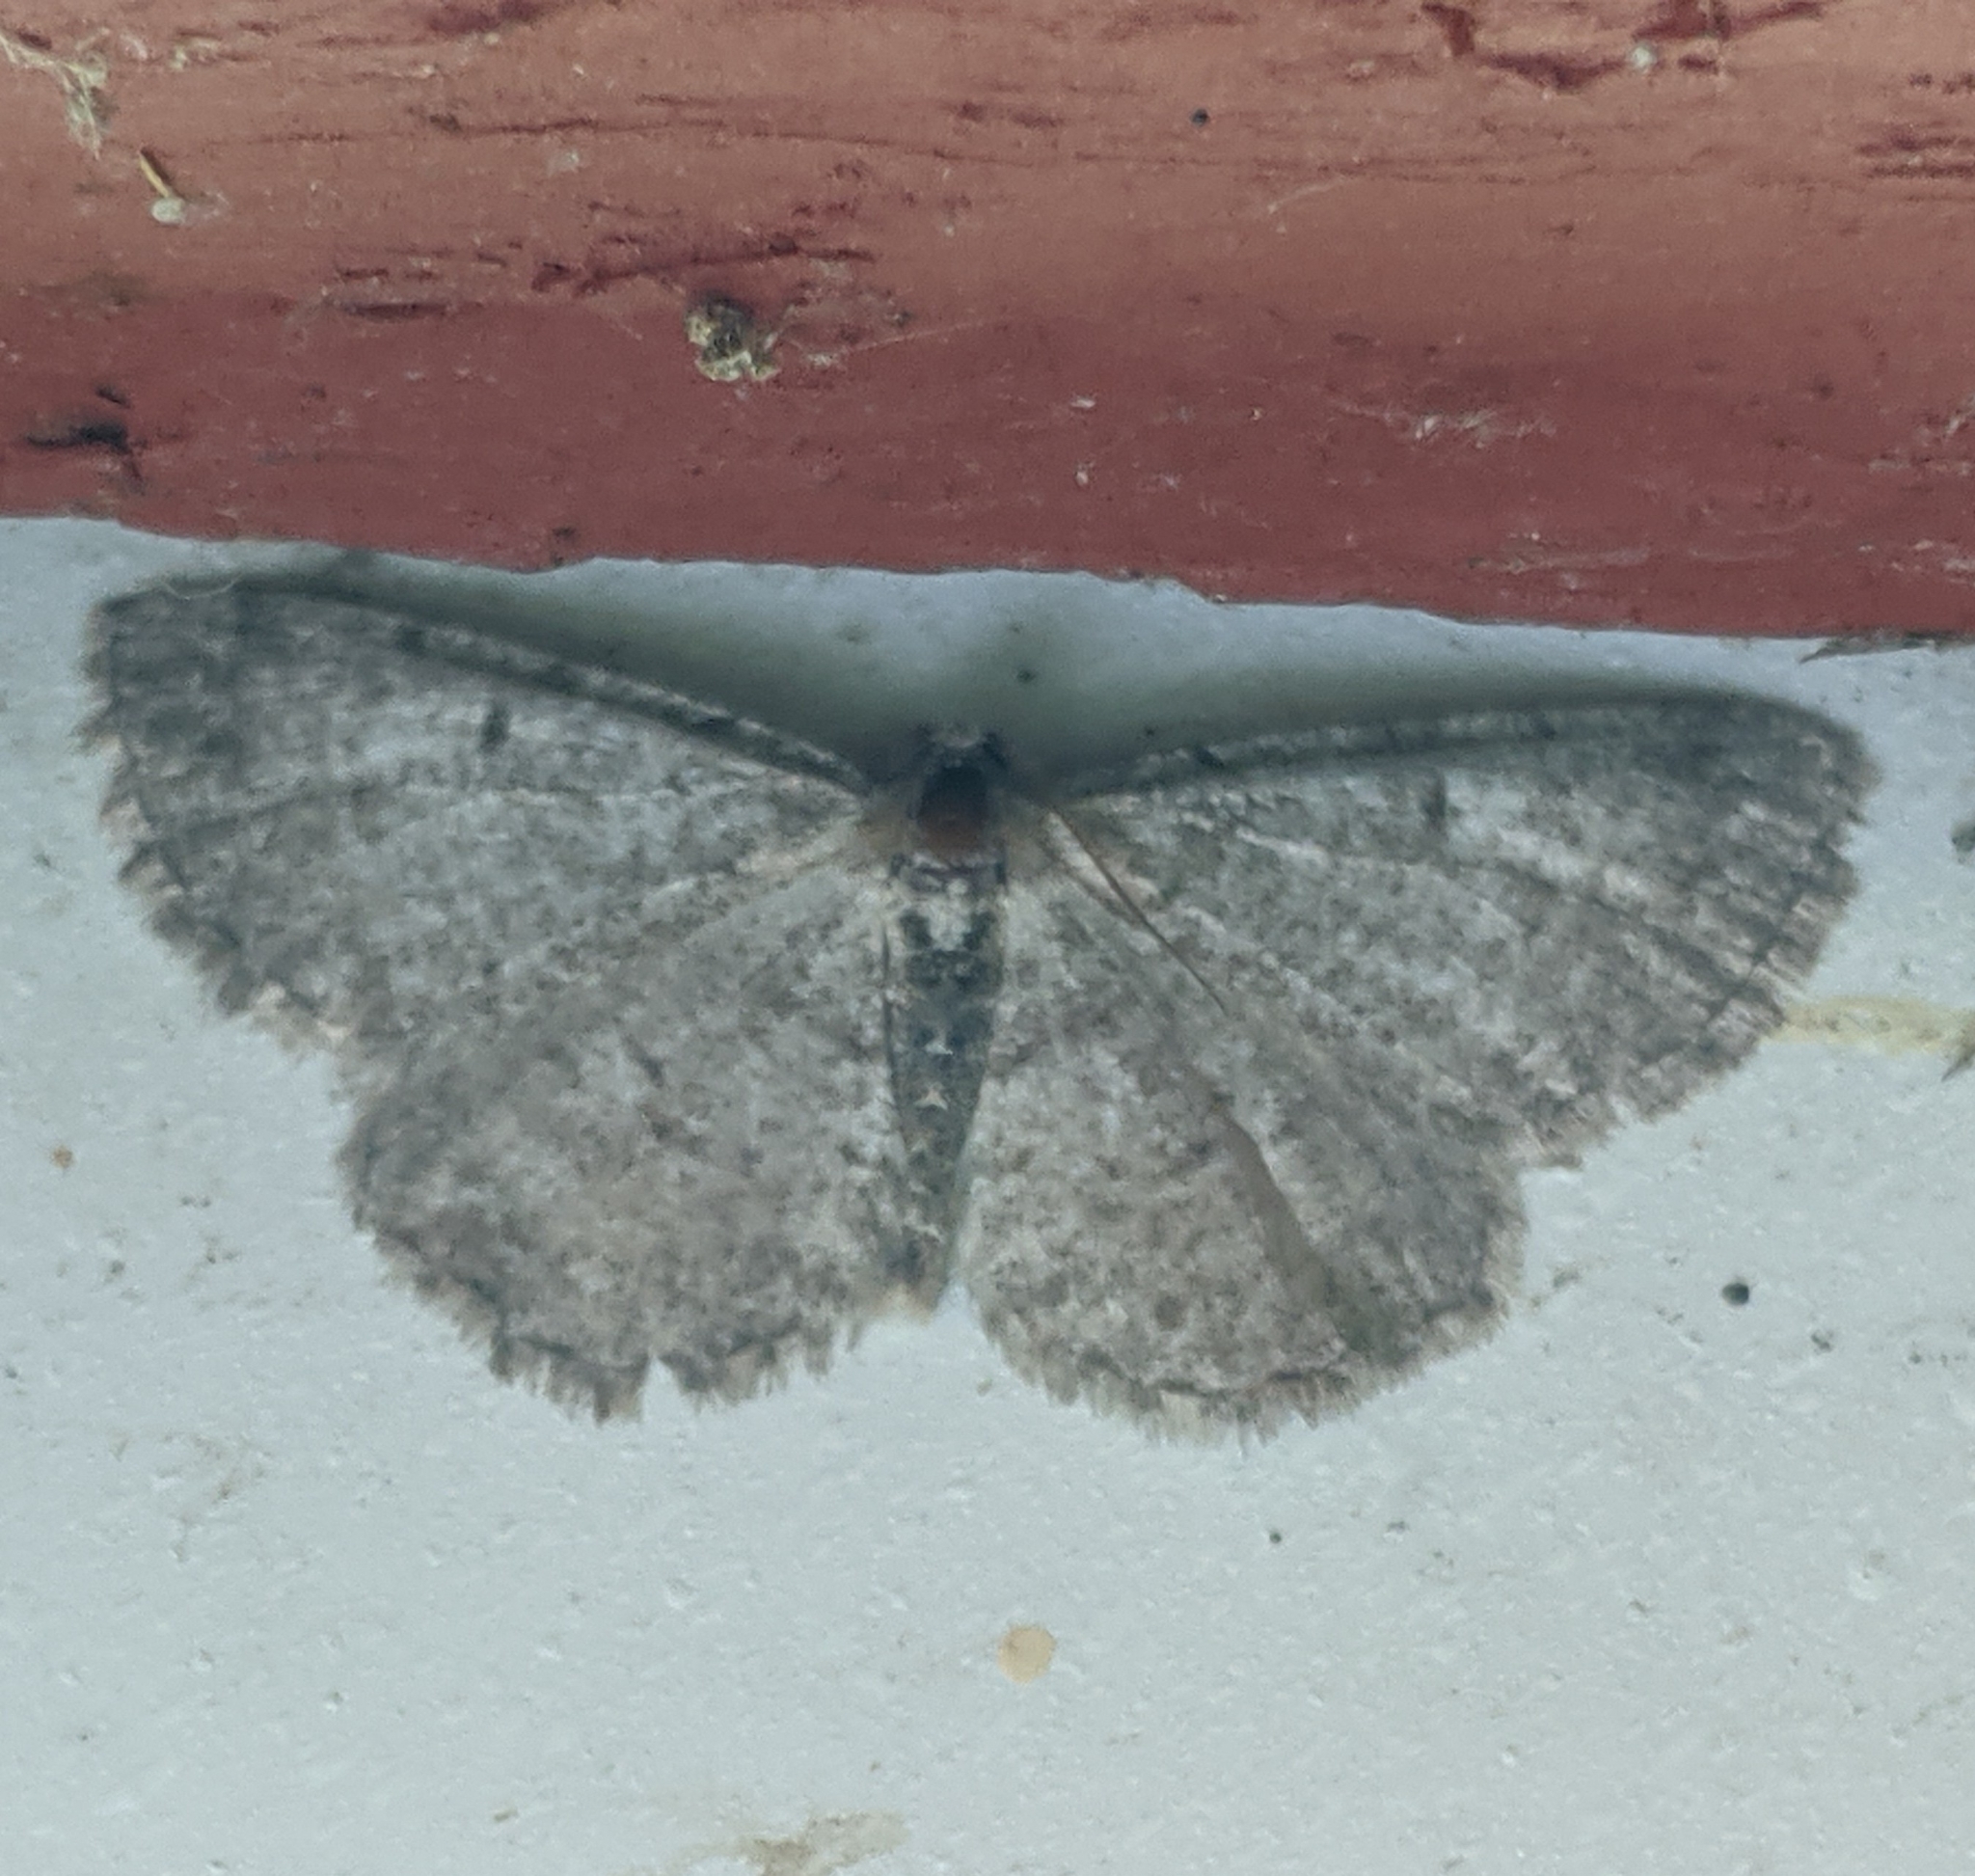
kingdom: Animalia
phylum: Arthropoda
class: Insecta
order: Lepidoptera
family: Geometridae
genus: Aethalura
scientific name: Aethalura intertexta
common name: Four-barred gray
